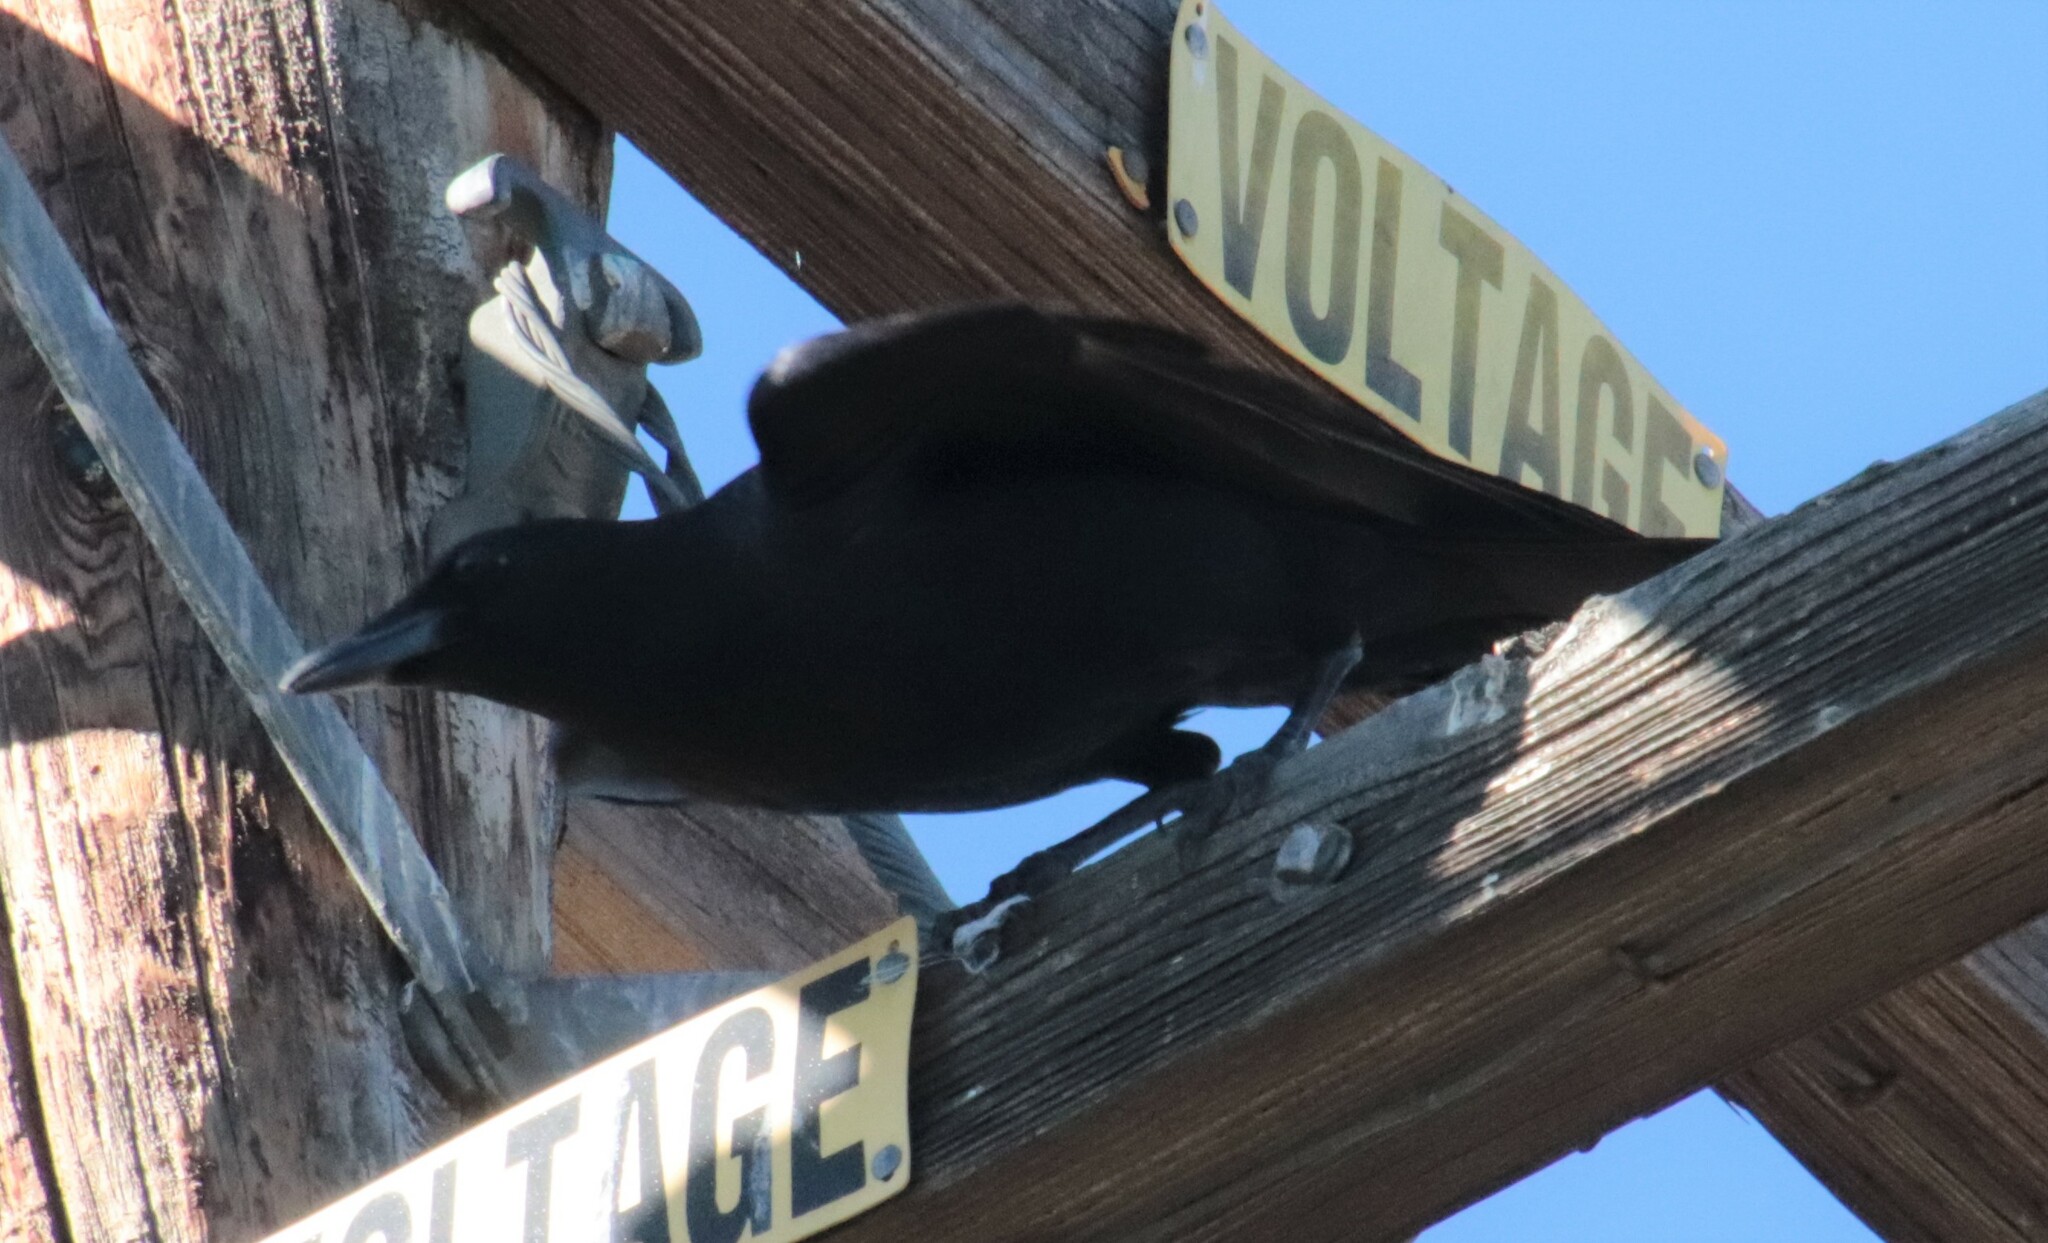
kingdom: Animalia
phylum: Chordata
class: Aves
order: Passeriformes
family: Corvidae
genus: Corvus
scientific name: Corvus brachyrhynchos
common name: American crow
